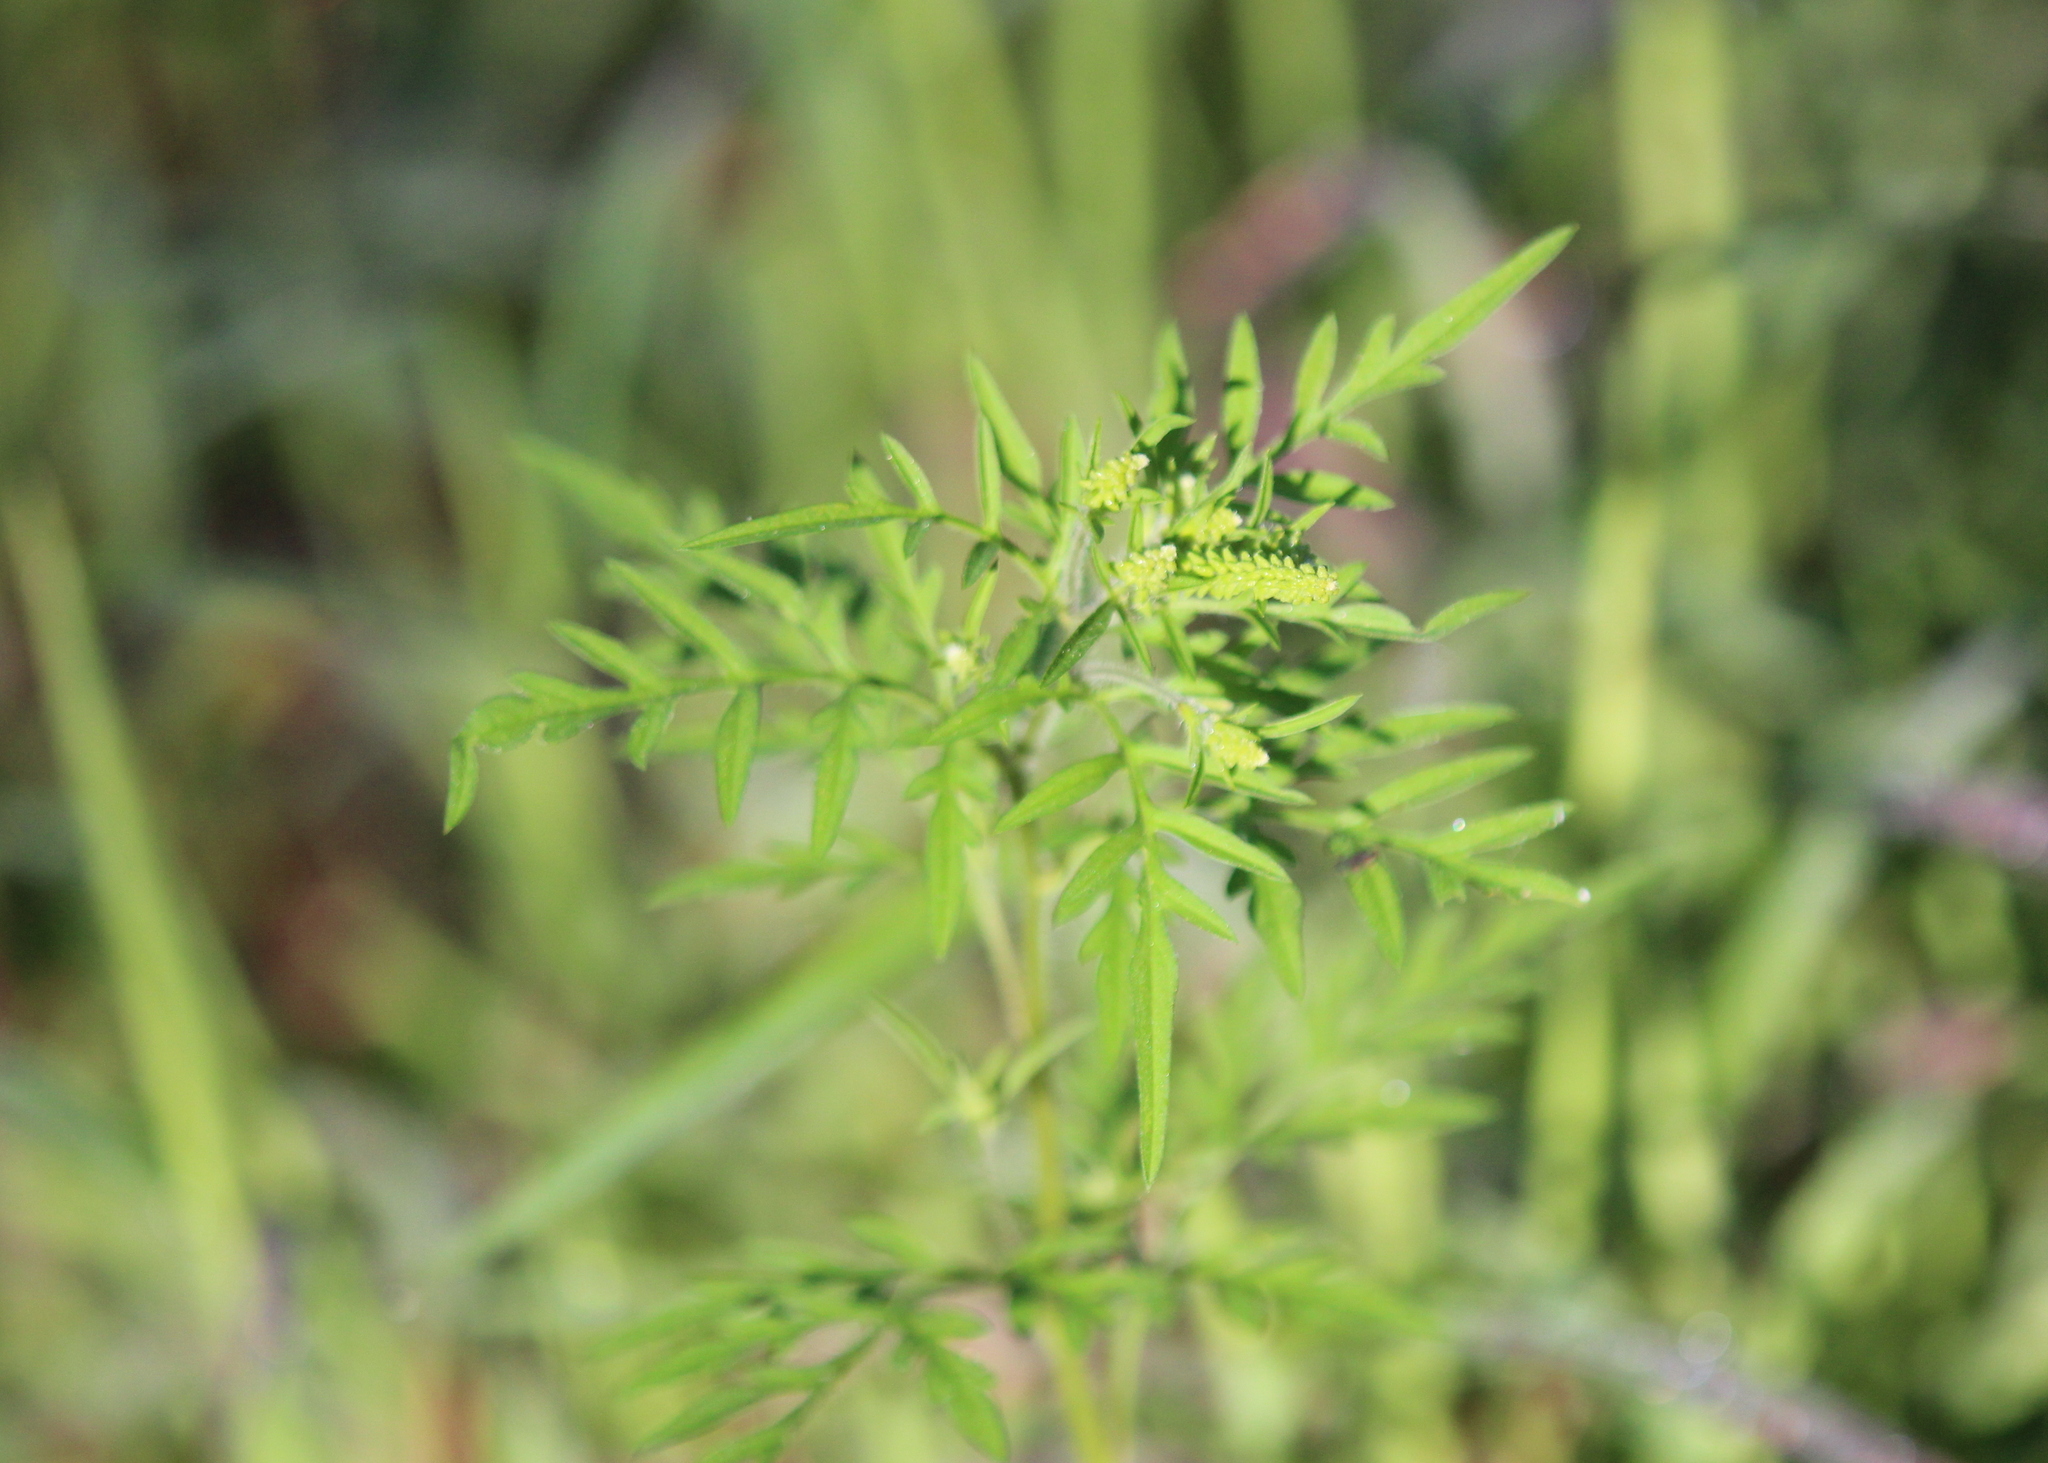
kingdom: Plantae
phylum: Tracheophyta
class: Magnoliopsida
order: Asterales
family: Asteraceae
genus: Ambrosia
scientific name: Ambrosia artemisiifolia
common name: Annual ragweed
